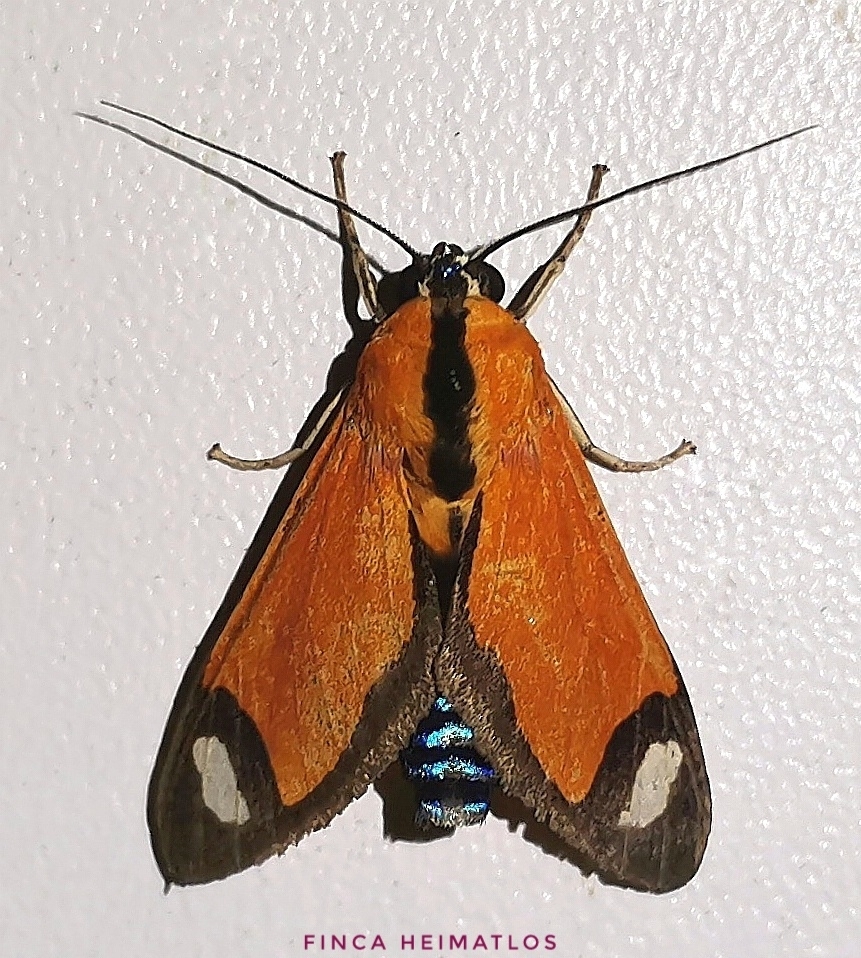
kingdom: Animalia
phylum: Arthropoda
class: Insecta
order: Lepidoptera
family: Erebidae
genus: Ormetica
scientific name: Ormetica contraria
